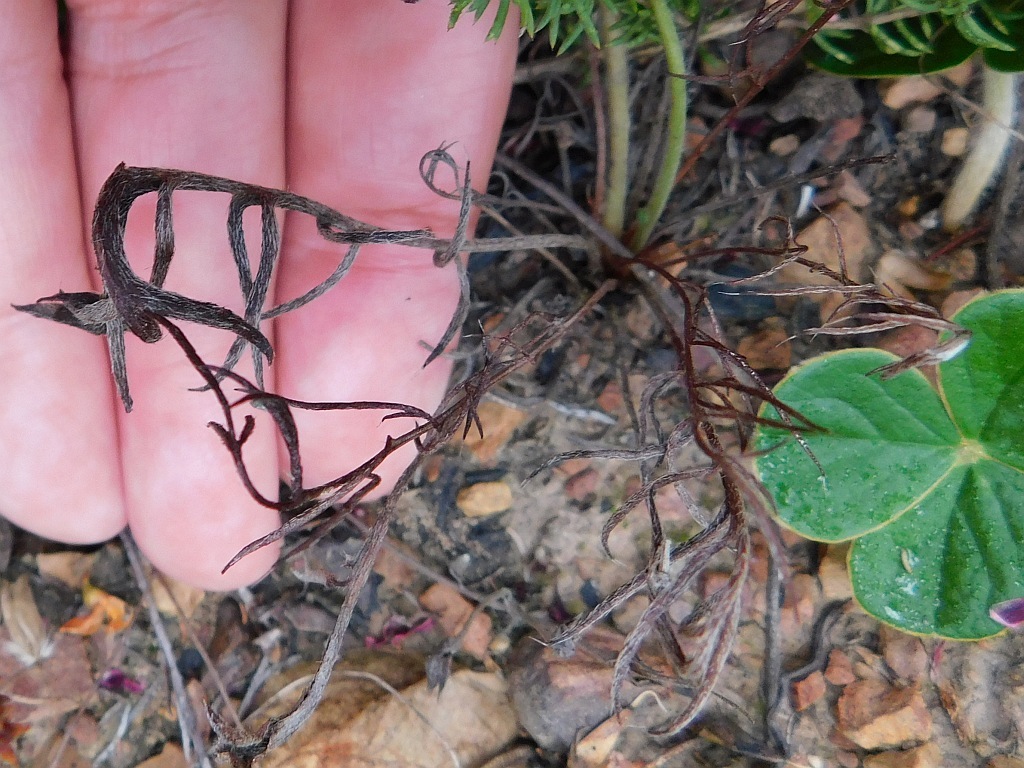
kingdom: Plantae
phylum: Tracheophyta
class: Magnoliopsida
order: Geraniales
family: Geraniaceae
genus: Pelargonium
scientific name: Pelargonium caledonicum
